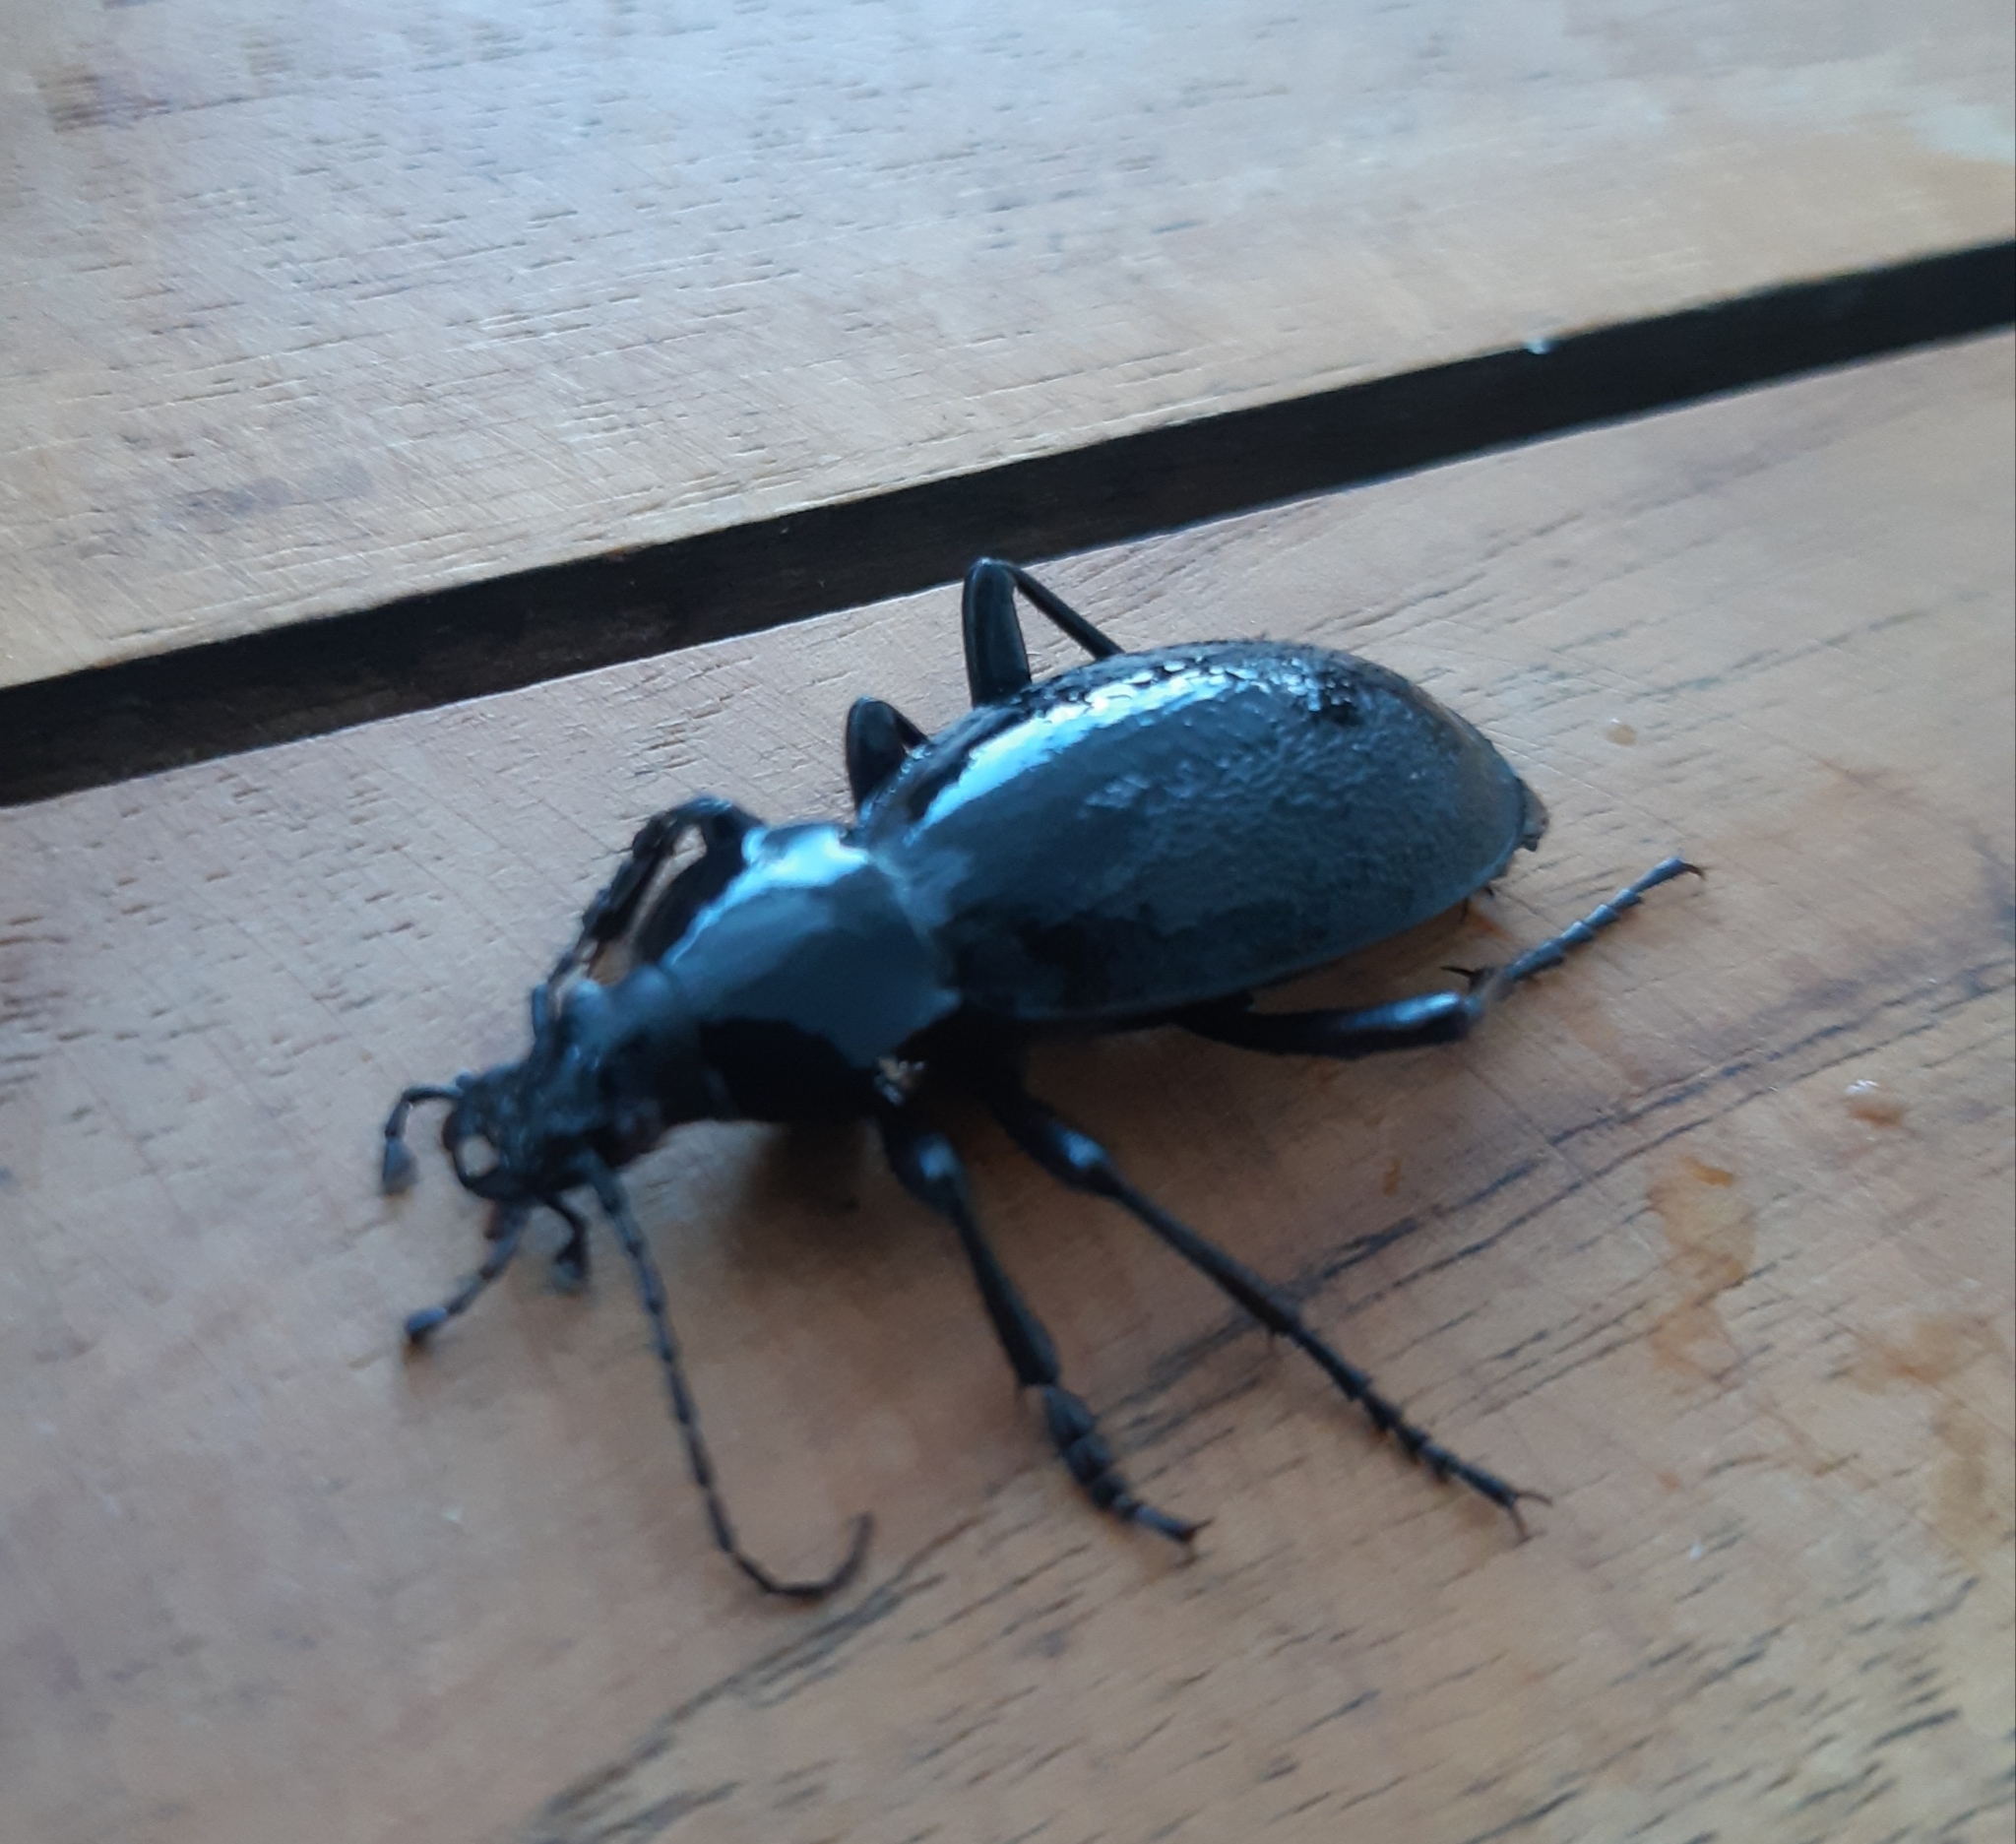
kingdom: Animalia
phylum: Arthropoda
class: Insecta
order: Coleoptera
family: Carabidae
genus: Carabus
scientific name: Carabus coriaceus
